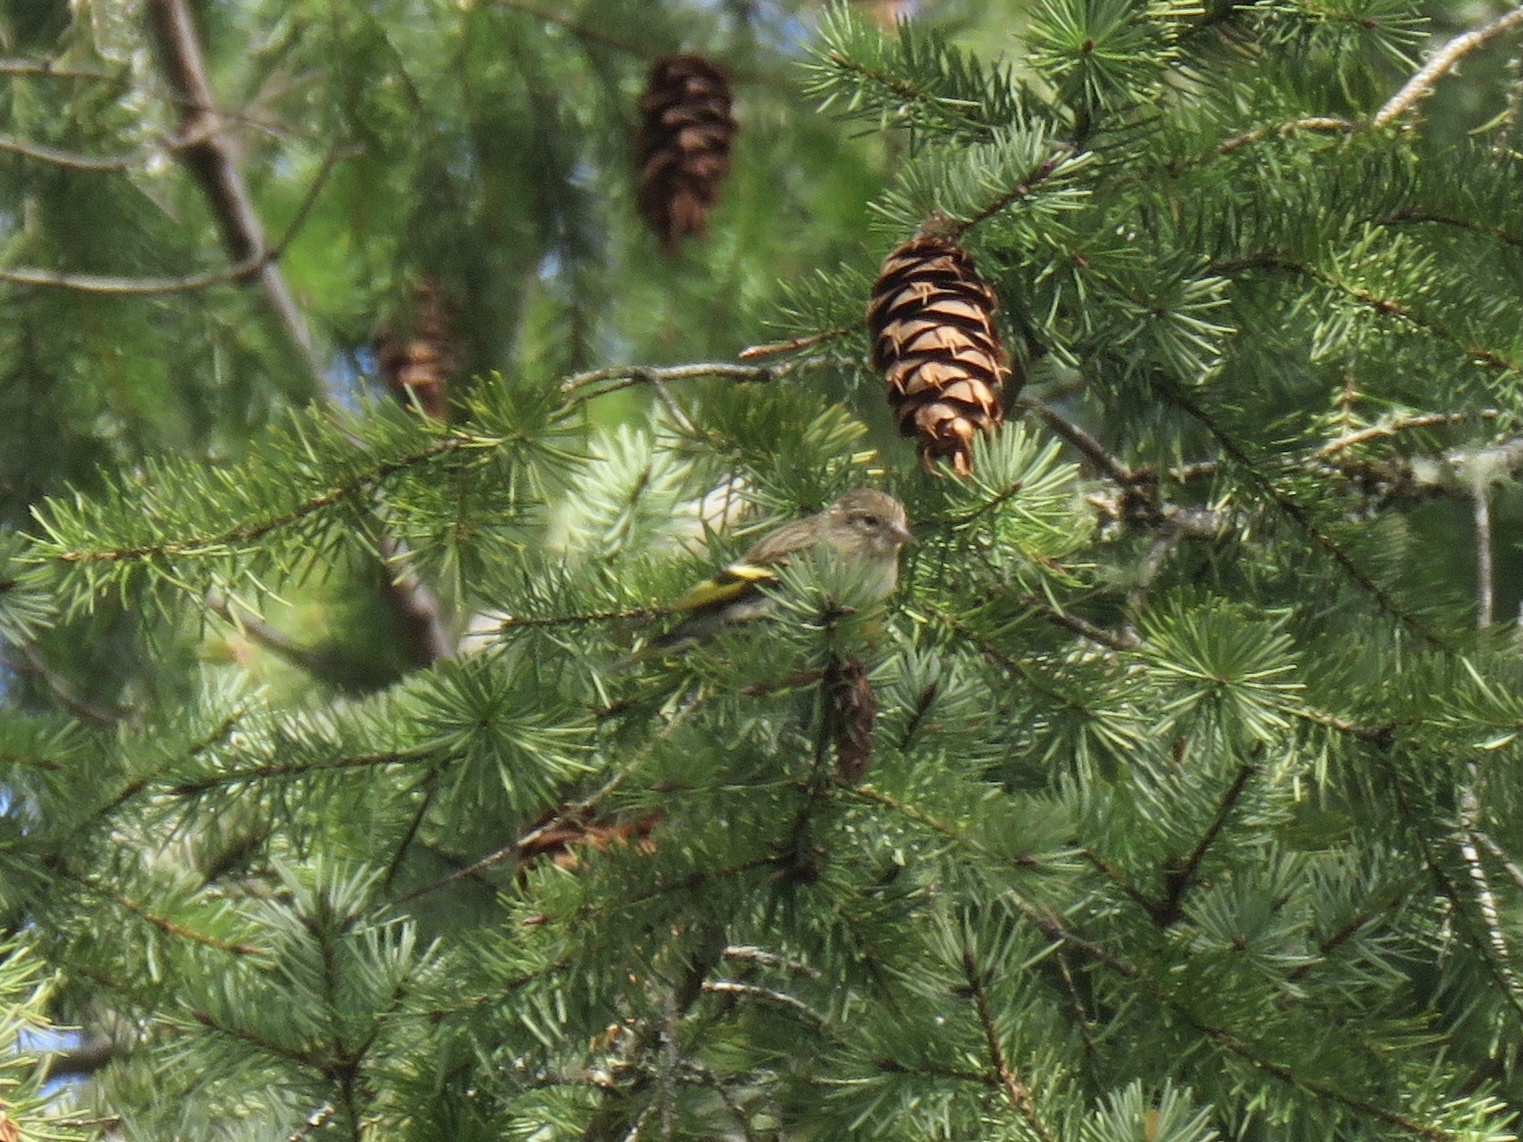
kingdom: Animalia
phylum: Chordata
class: Aves
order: Passeriformes
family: Fringillidae
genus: Spinus
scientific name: Spinus pinus
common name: Pine siskin
